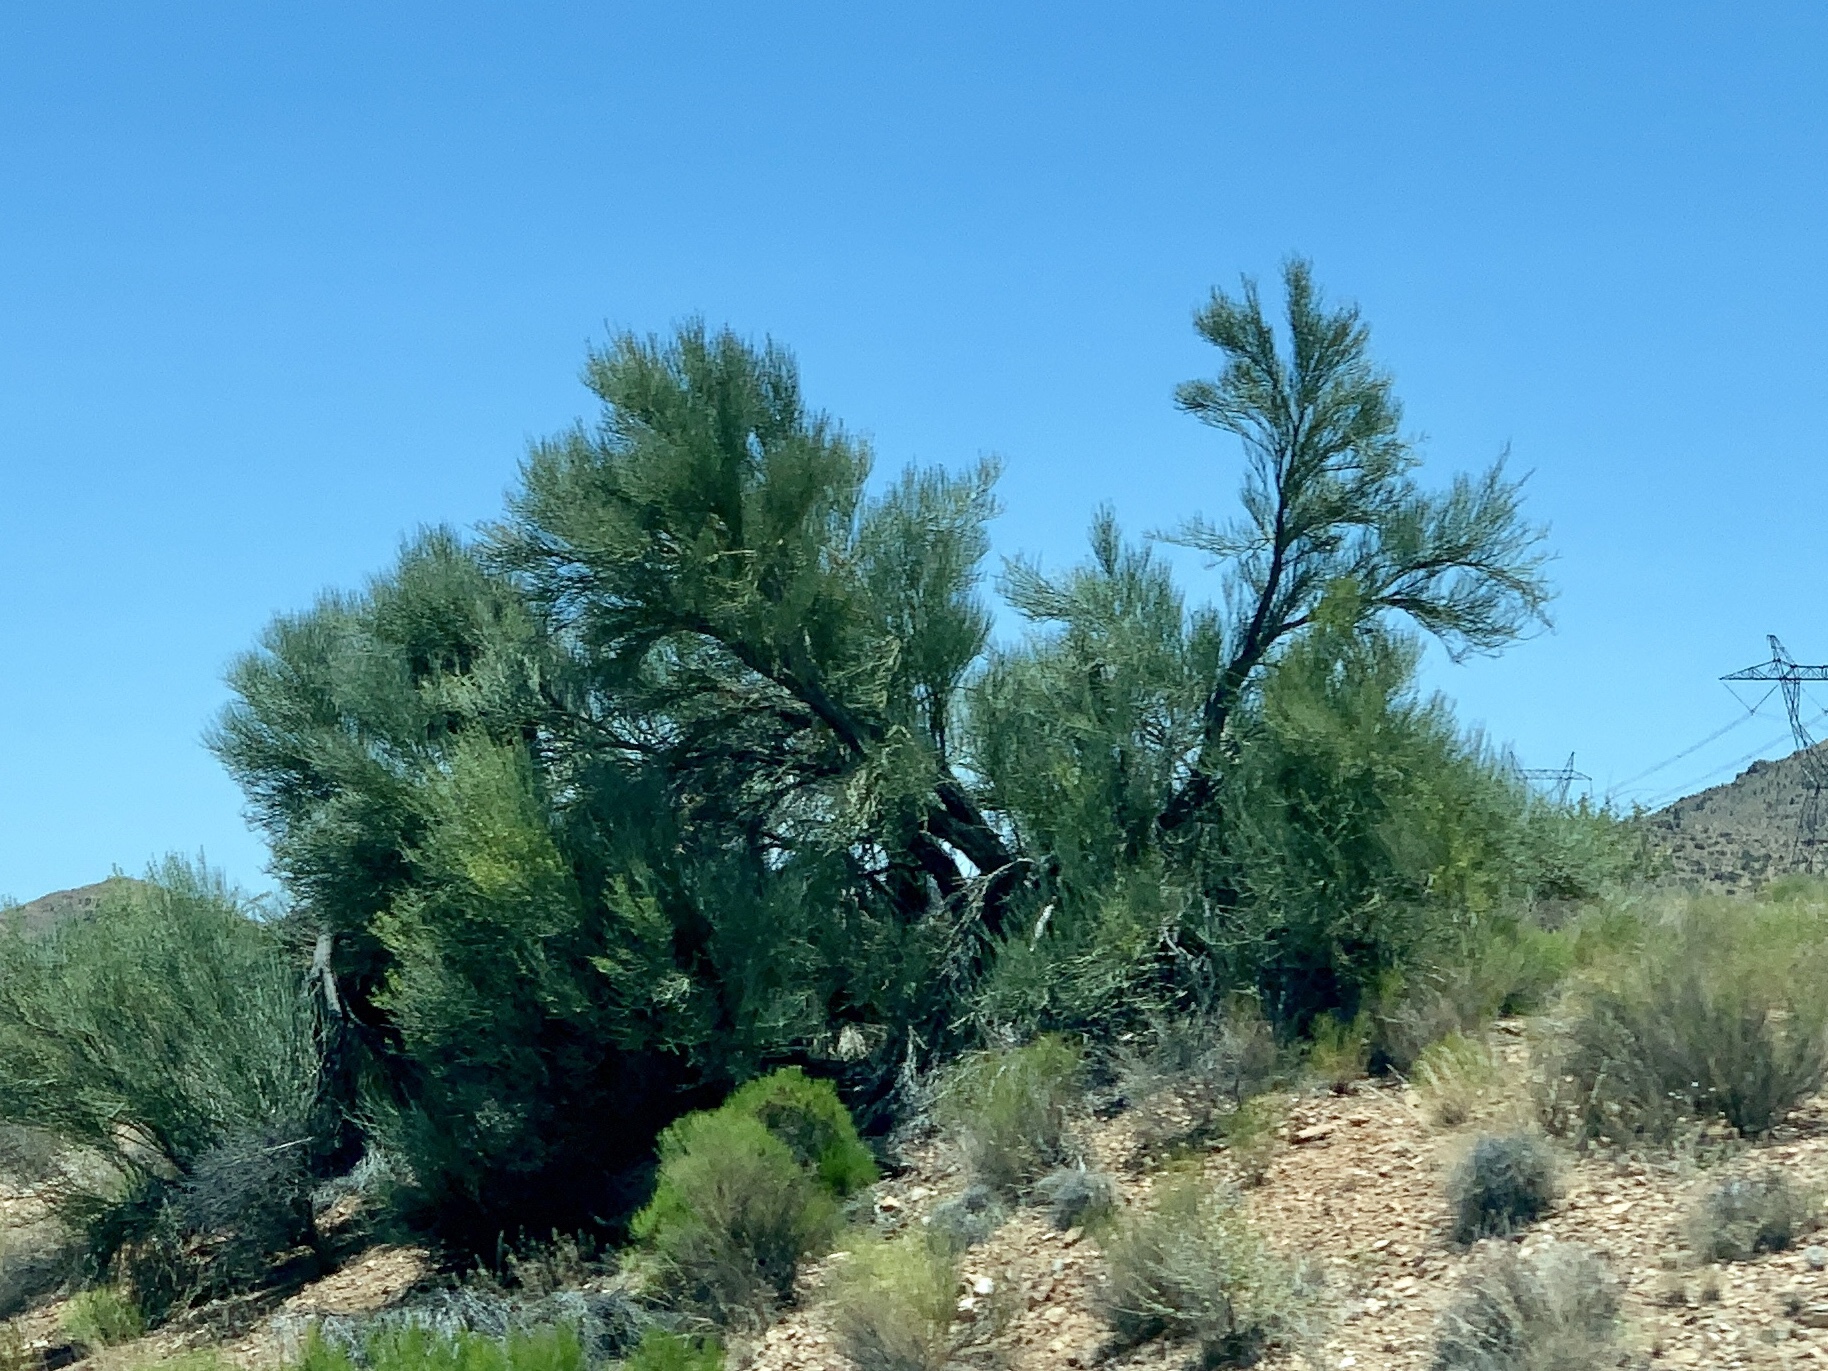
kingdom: Plantae
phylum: Tracheophyta
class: Magnoliopsida
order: Celastrales
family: Celastraceae
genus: Canotia
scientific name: Canotia holacantha
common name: Crucifixion thorns
